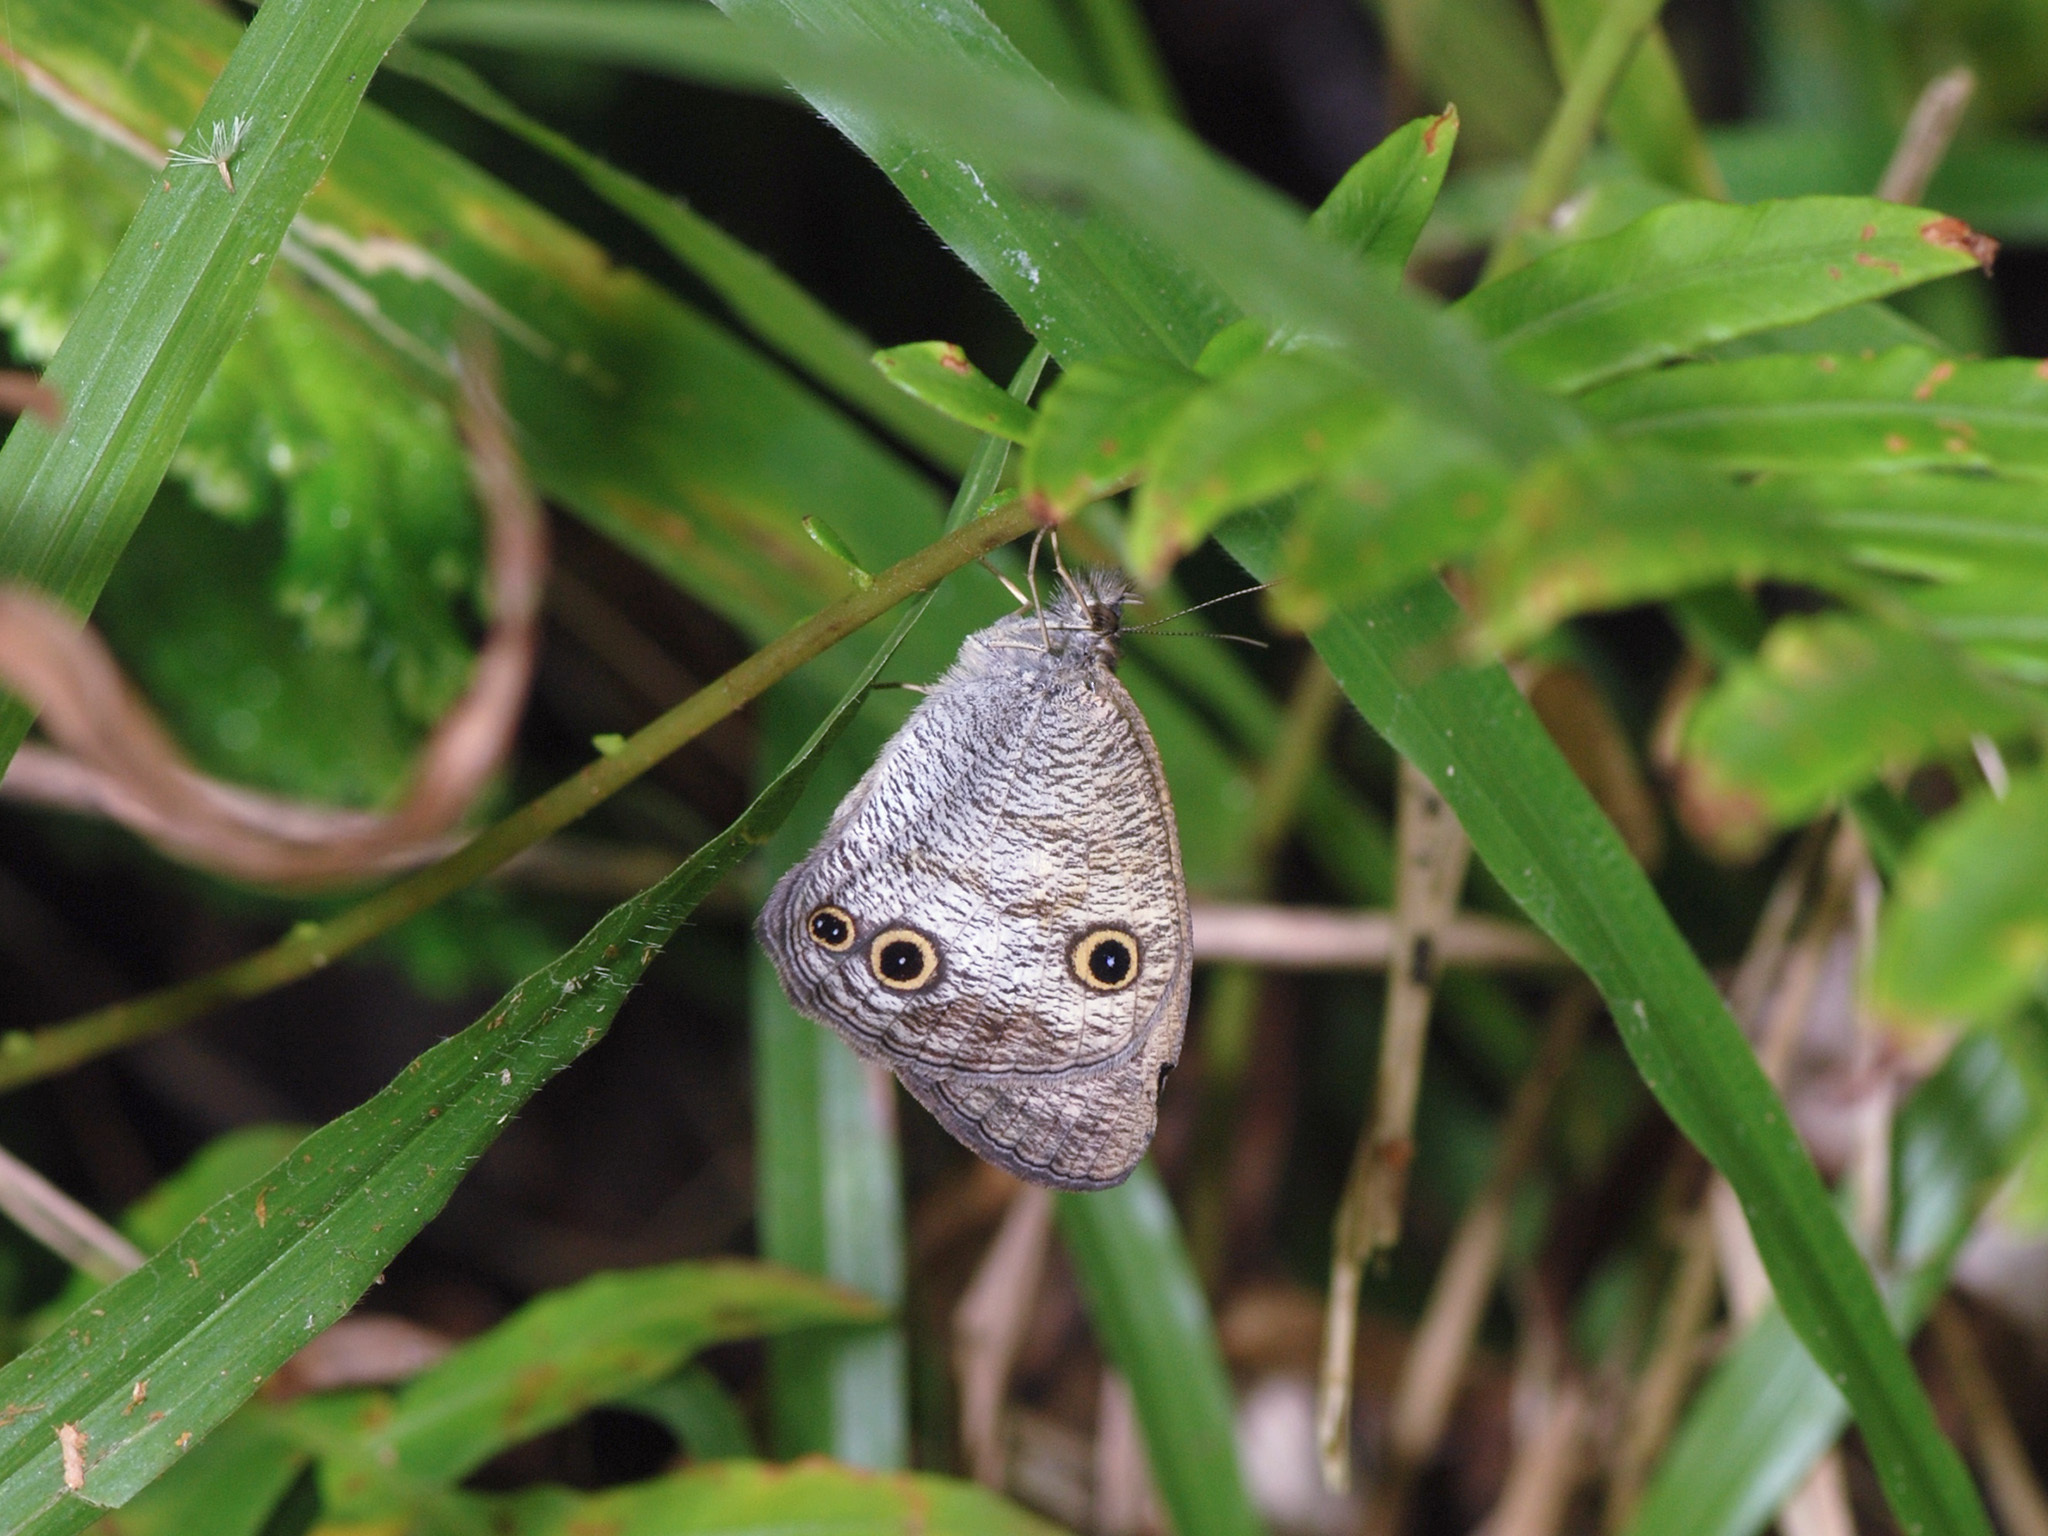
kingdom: Animalia
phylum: Arthropoda
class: Insecta
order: Lepidoptera
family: Nymphalidae
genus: Ypthima
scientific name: Ypthima pandocus
